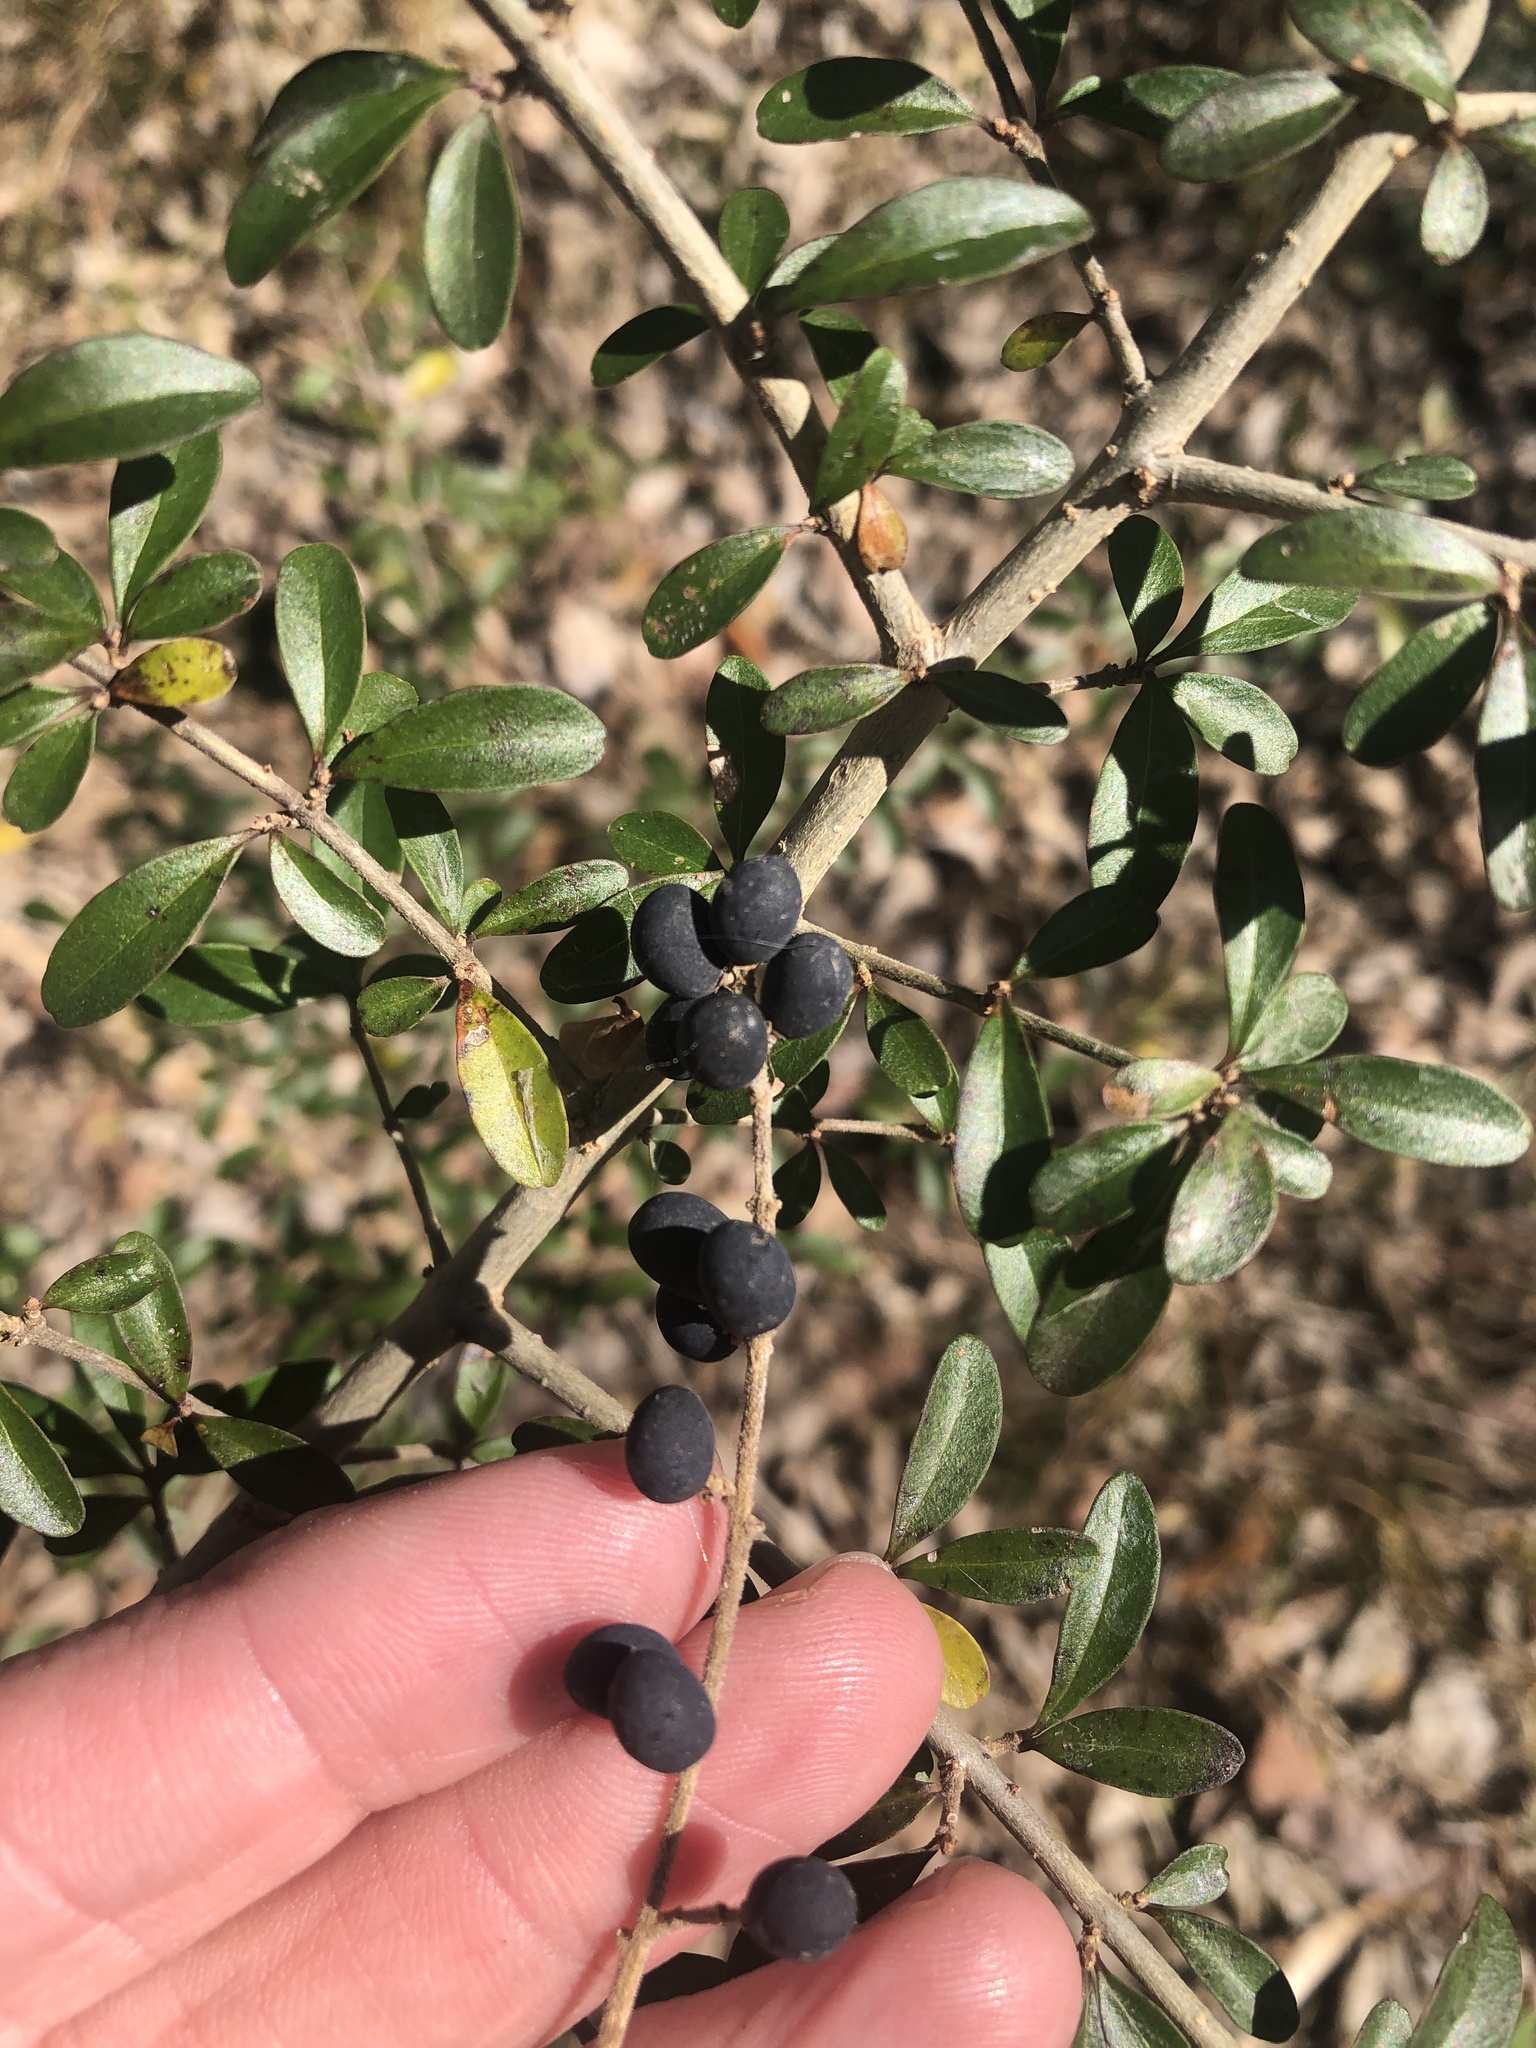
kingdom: Plantae
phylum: Tracheophyta
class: Magnoliopsida
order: Lamiales
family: Oleaceae
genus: Ligustrum
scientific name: Ligustrum quihoui
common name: Waxyleaf privet
